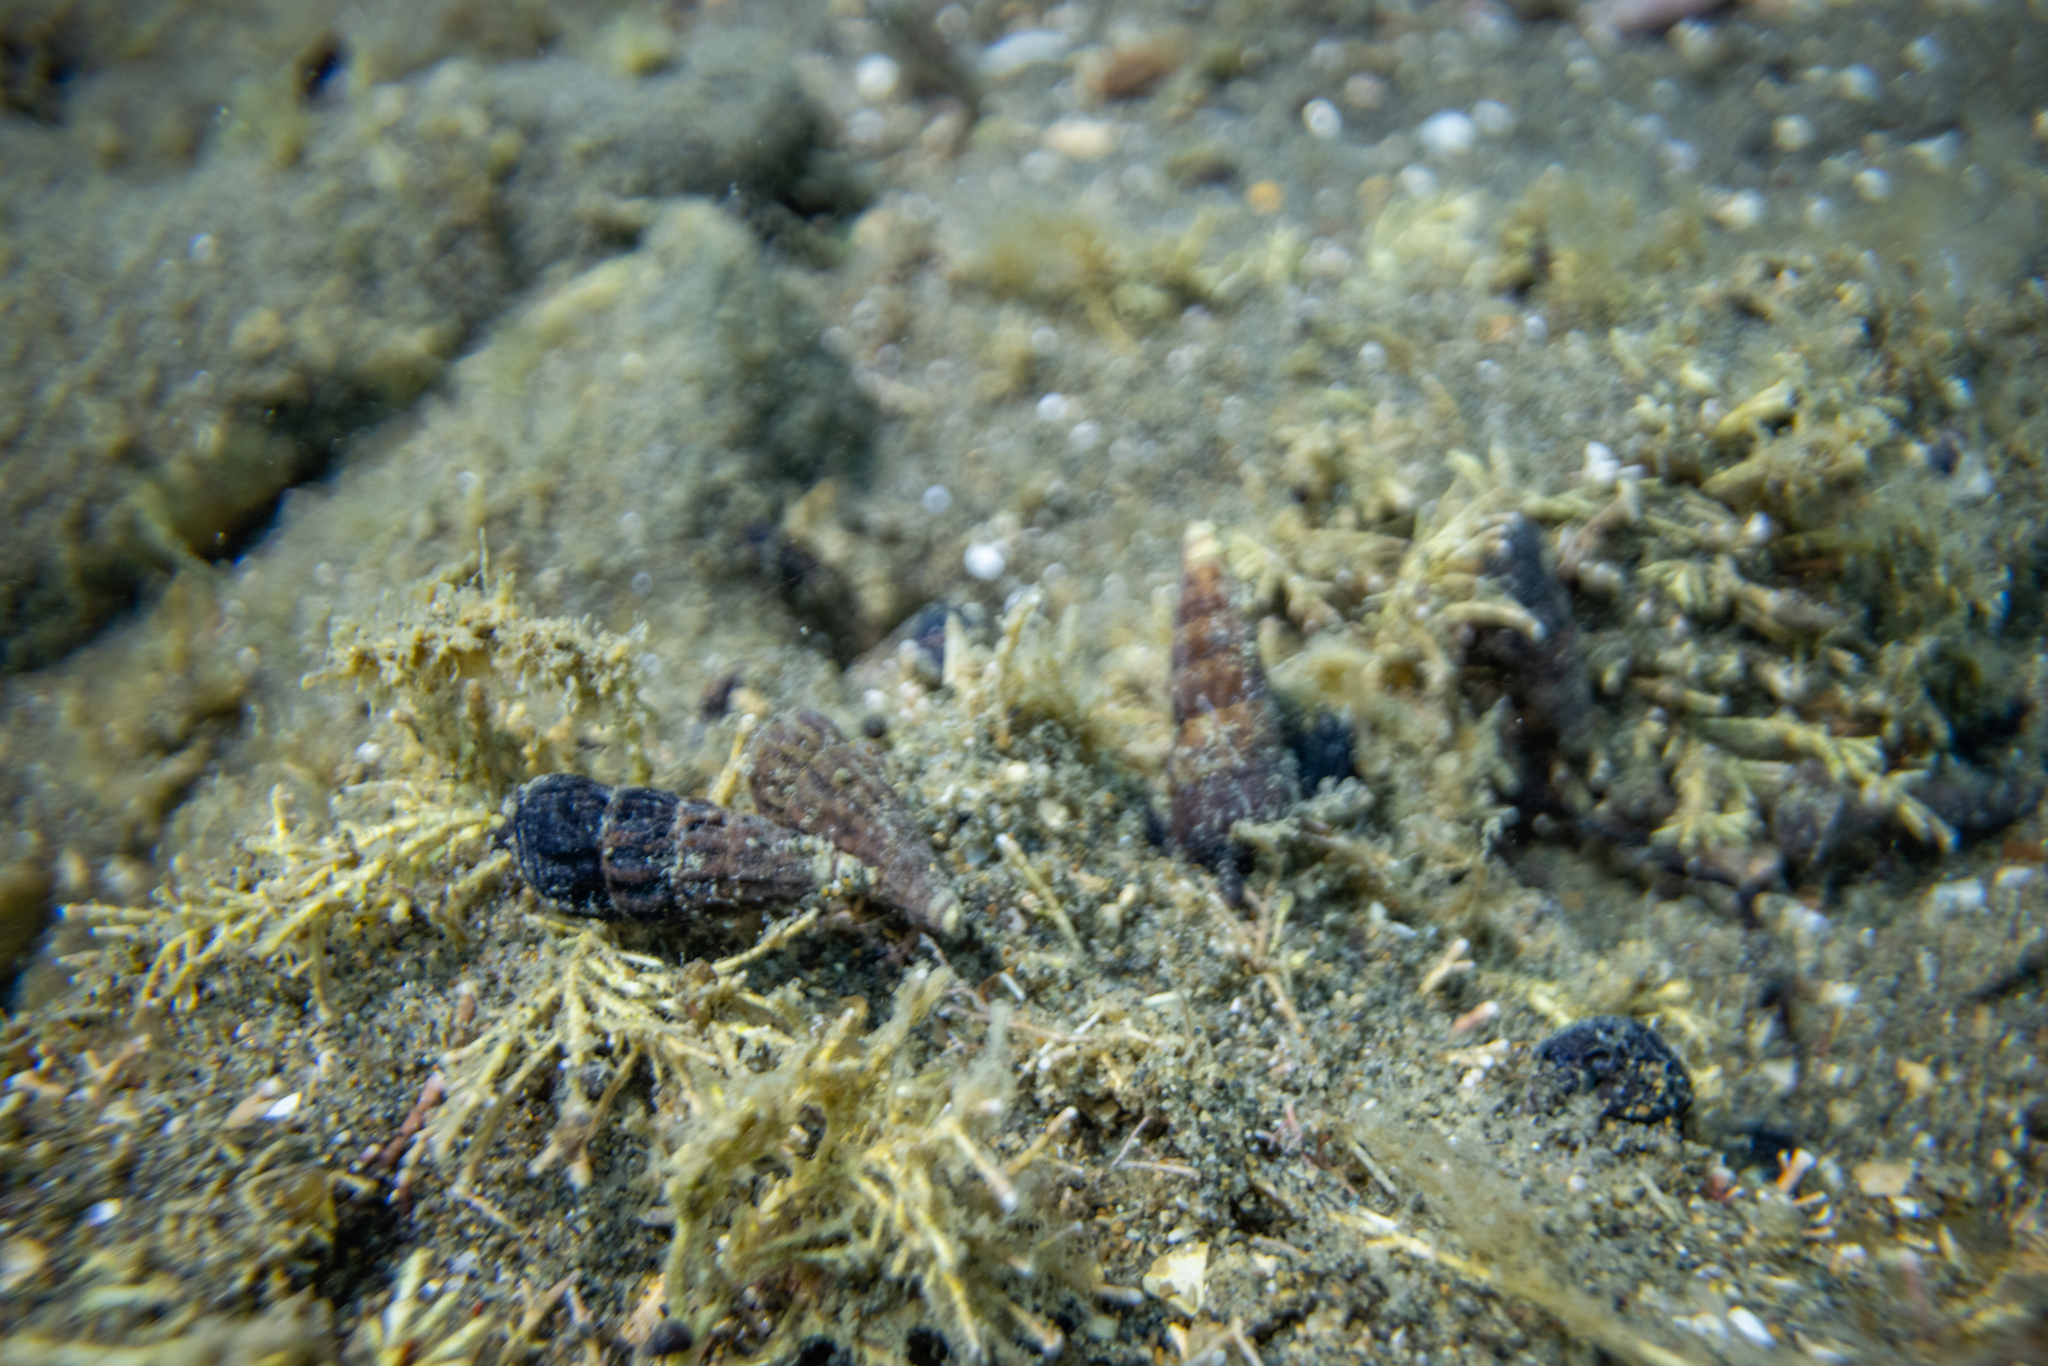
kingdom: Animalia
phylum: Mollusca
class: Gastropoda
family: Batillariidae
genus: Zeacumantus
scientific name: Zeacumantus subcarinatus
